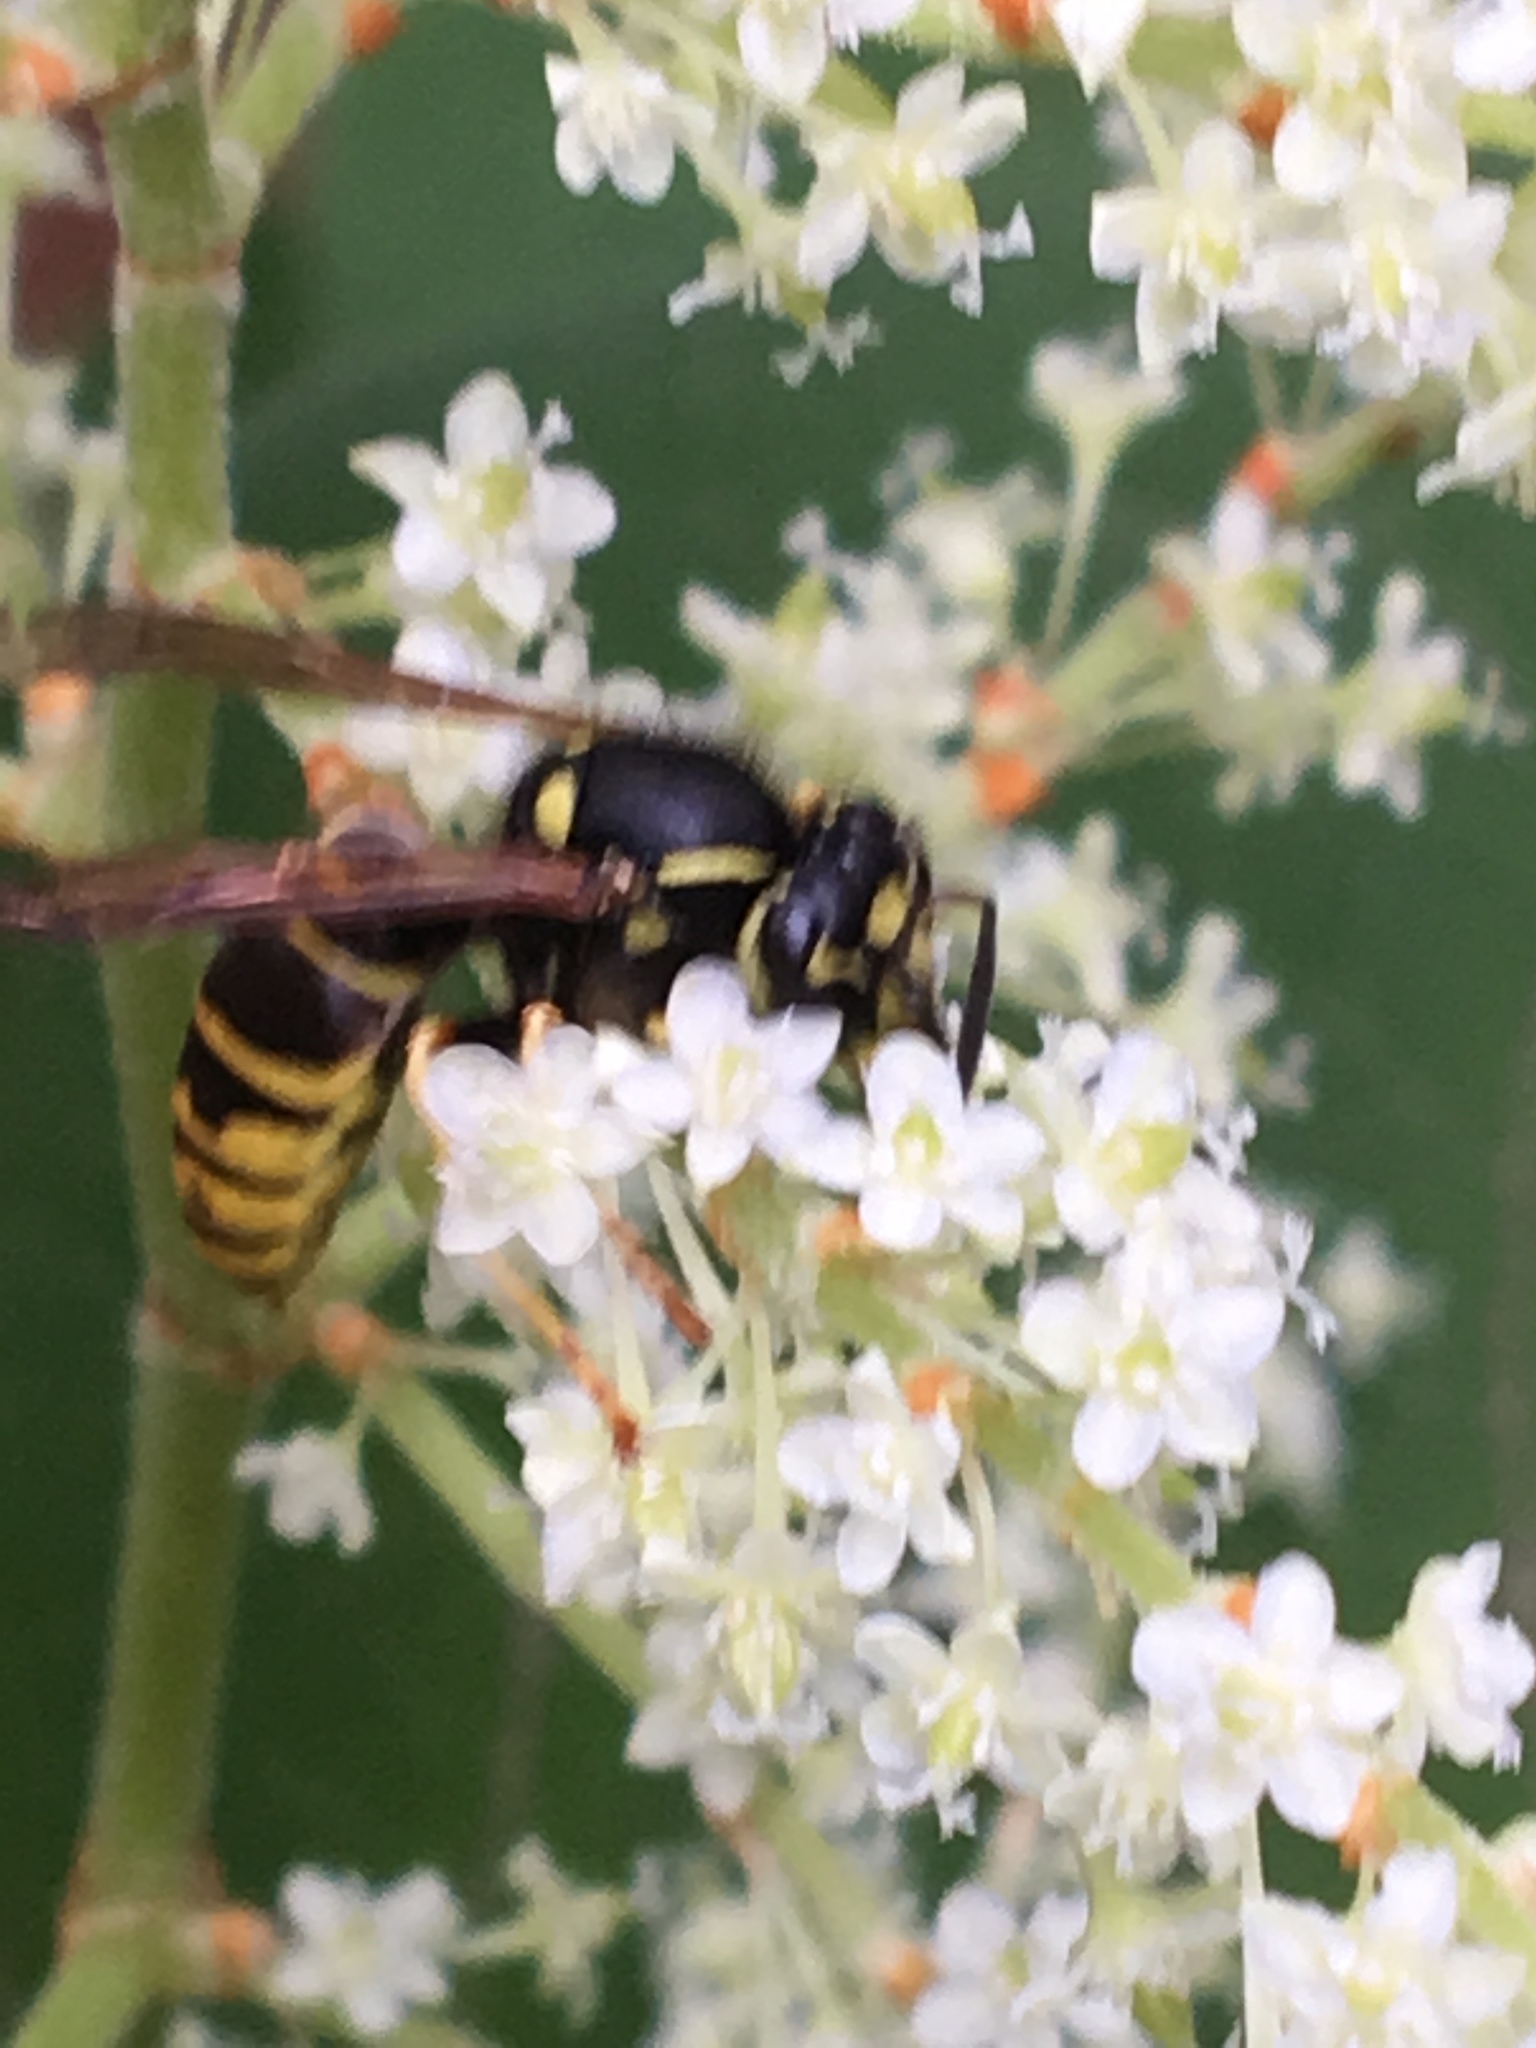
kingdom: Animalia
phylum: Arthropoda
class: Insecta
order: Hymenoptera
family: Vespidae
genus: Vespula
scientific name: Vespula vidua
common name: Widow yellowjacket
